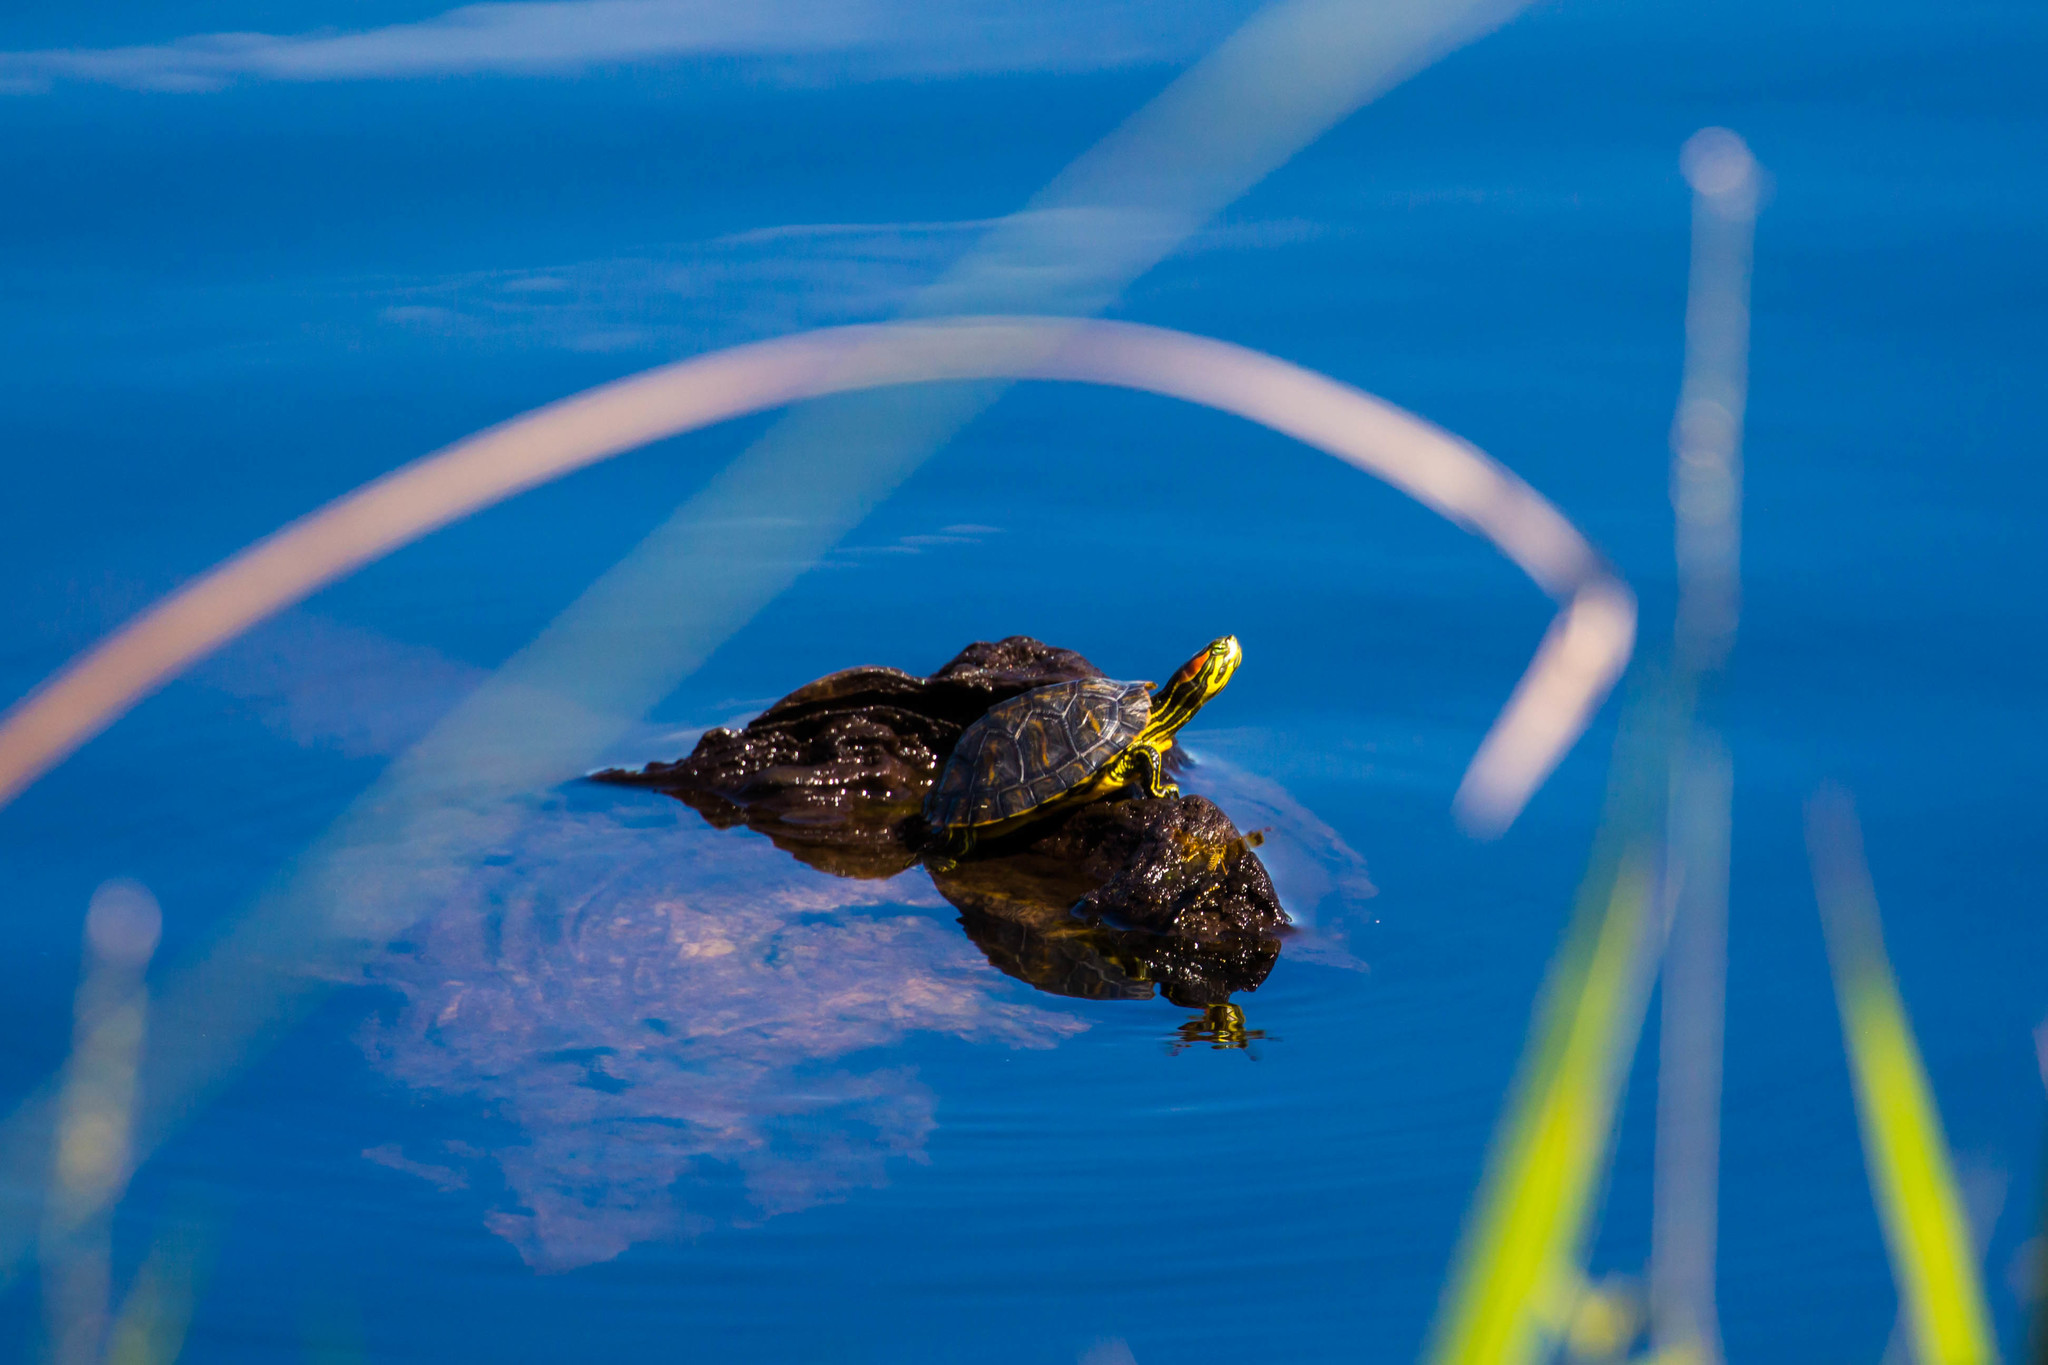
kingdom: Animalia
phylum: Chordata
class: Testudines
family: Emydidae
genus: Trachemys
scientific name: Trachemys scripta
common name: Slider
